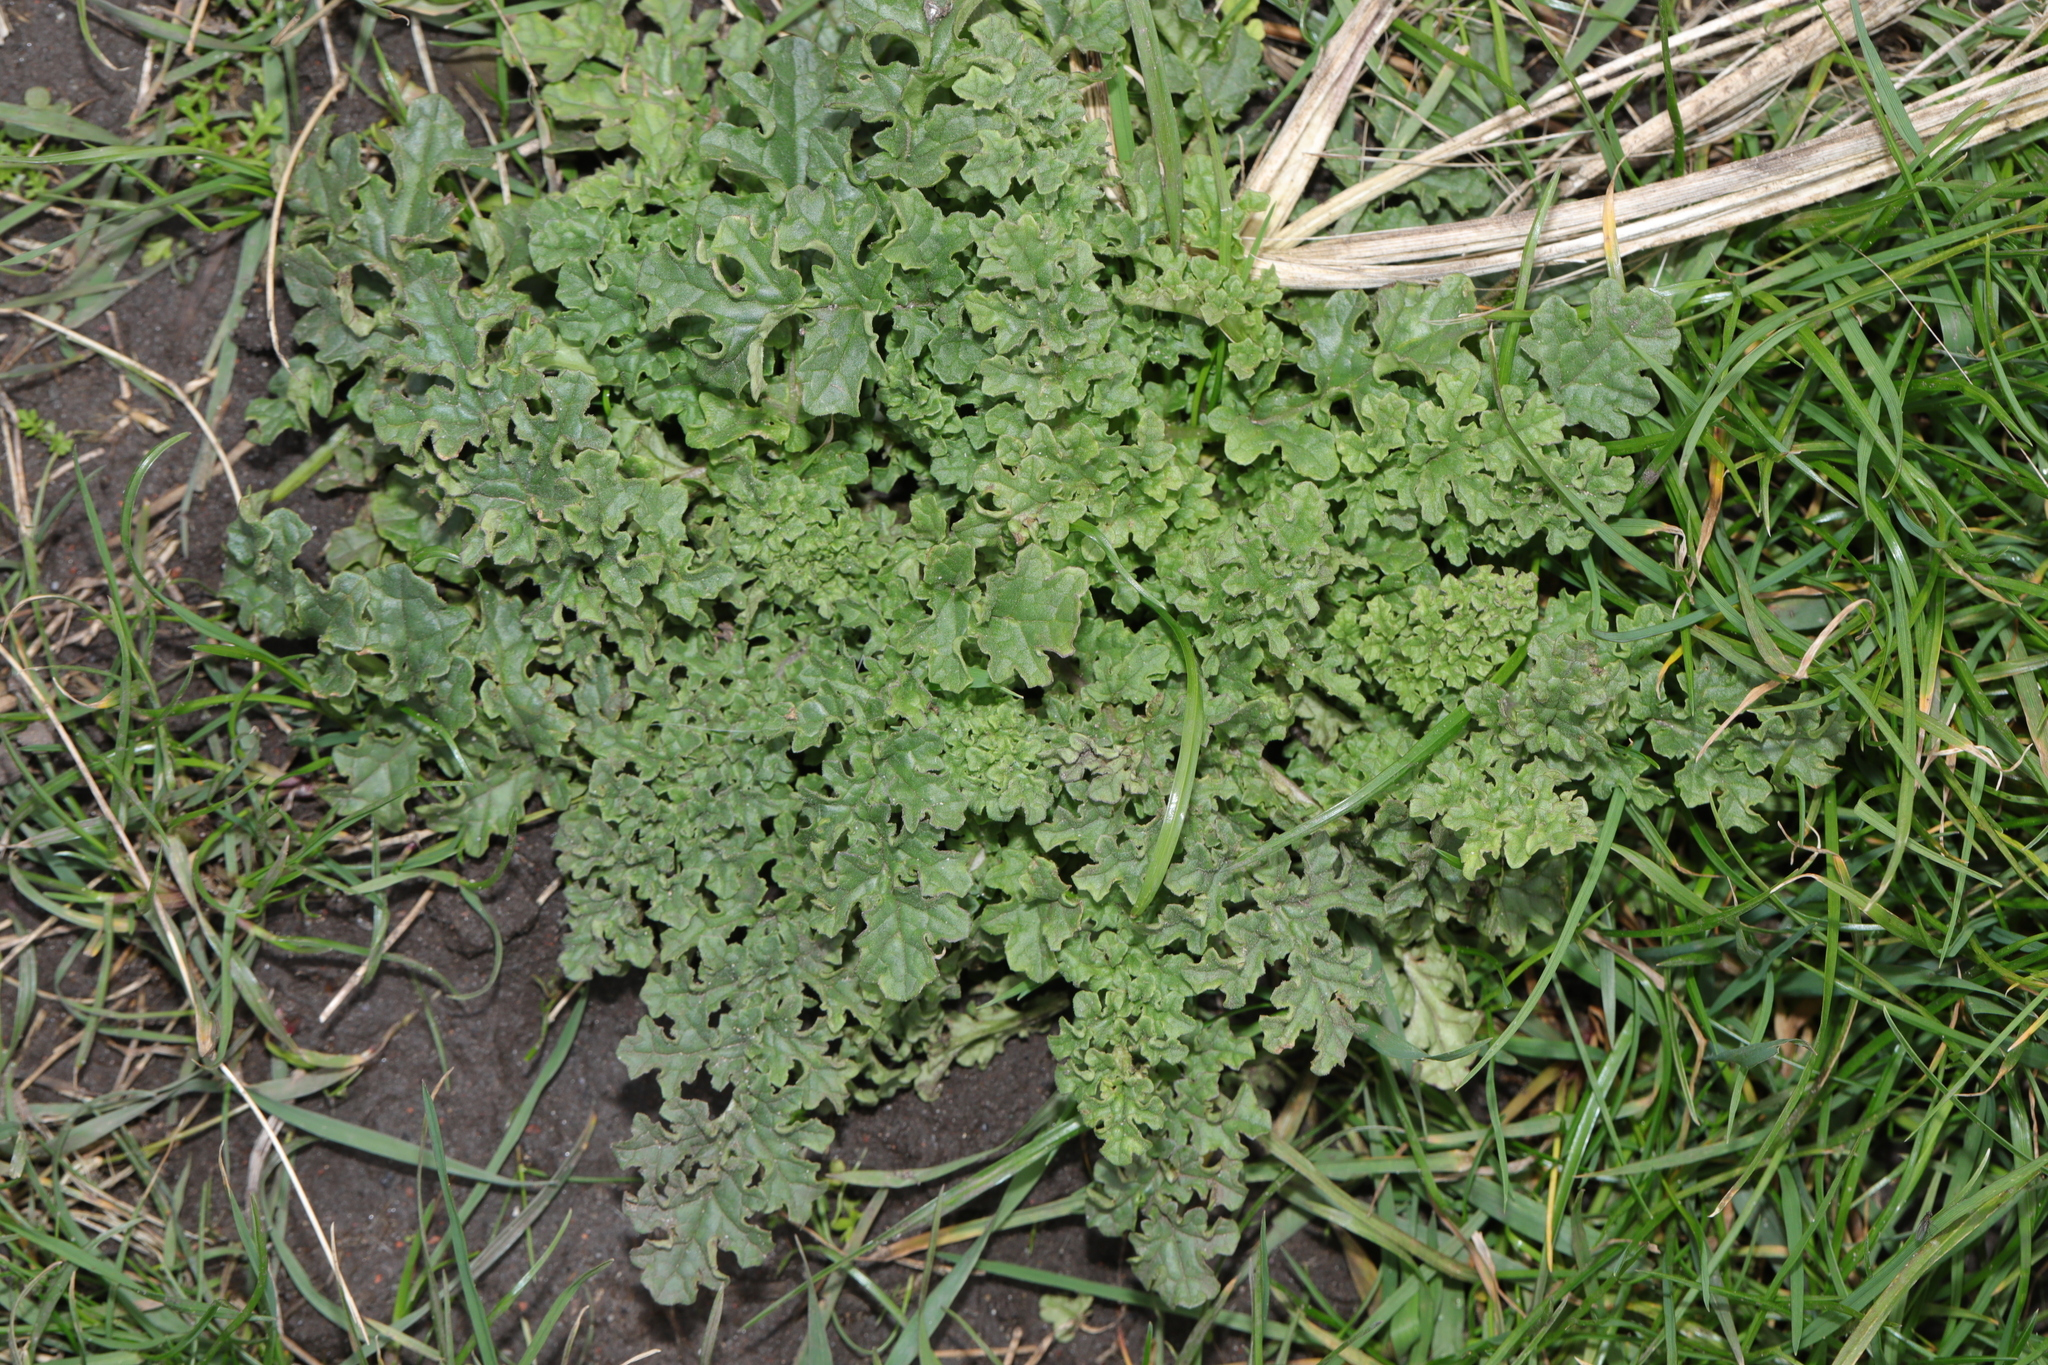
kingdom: Plantae
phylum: Tracheophyta
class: Magnoliopsida
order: Asterales
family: Asteraceae
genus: Jacobaea
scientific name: Jacobaea vulgaris
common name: Stinking willie
